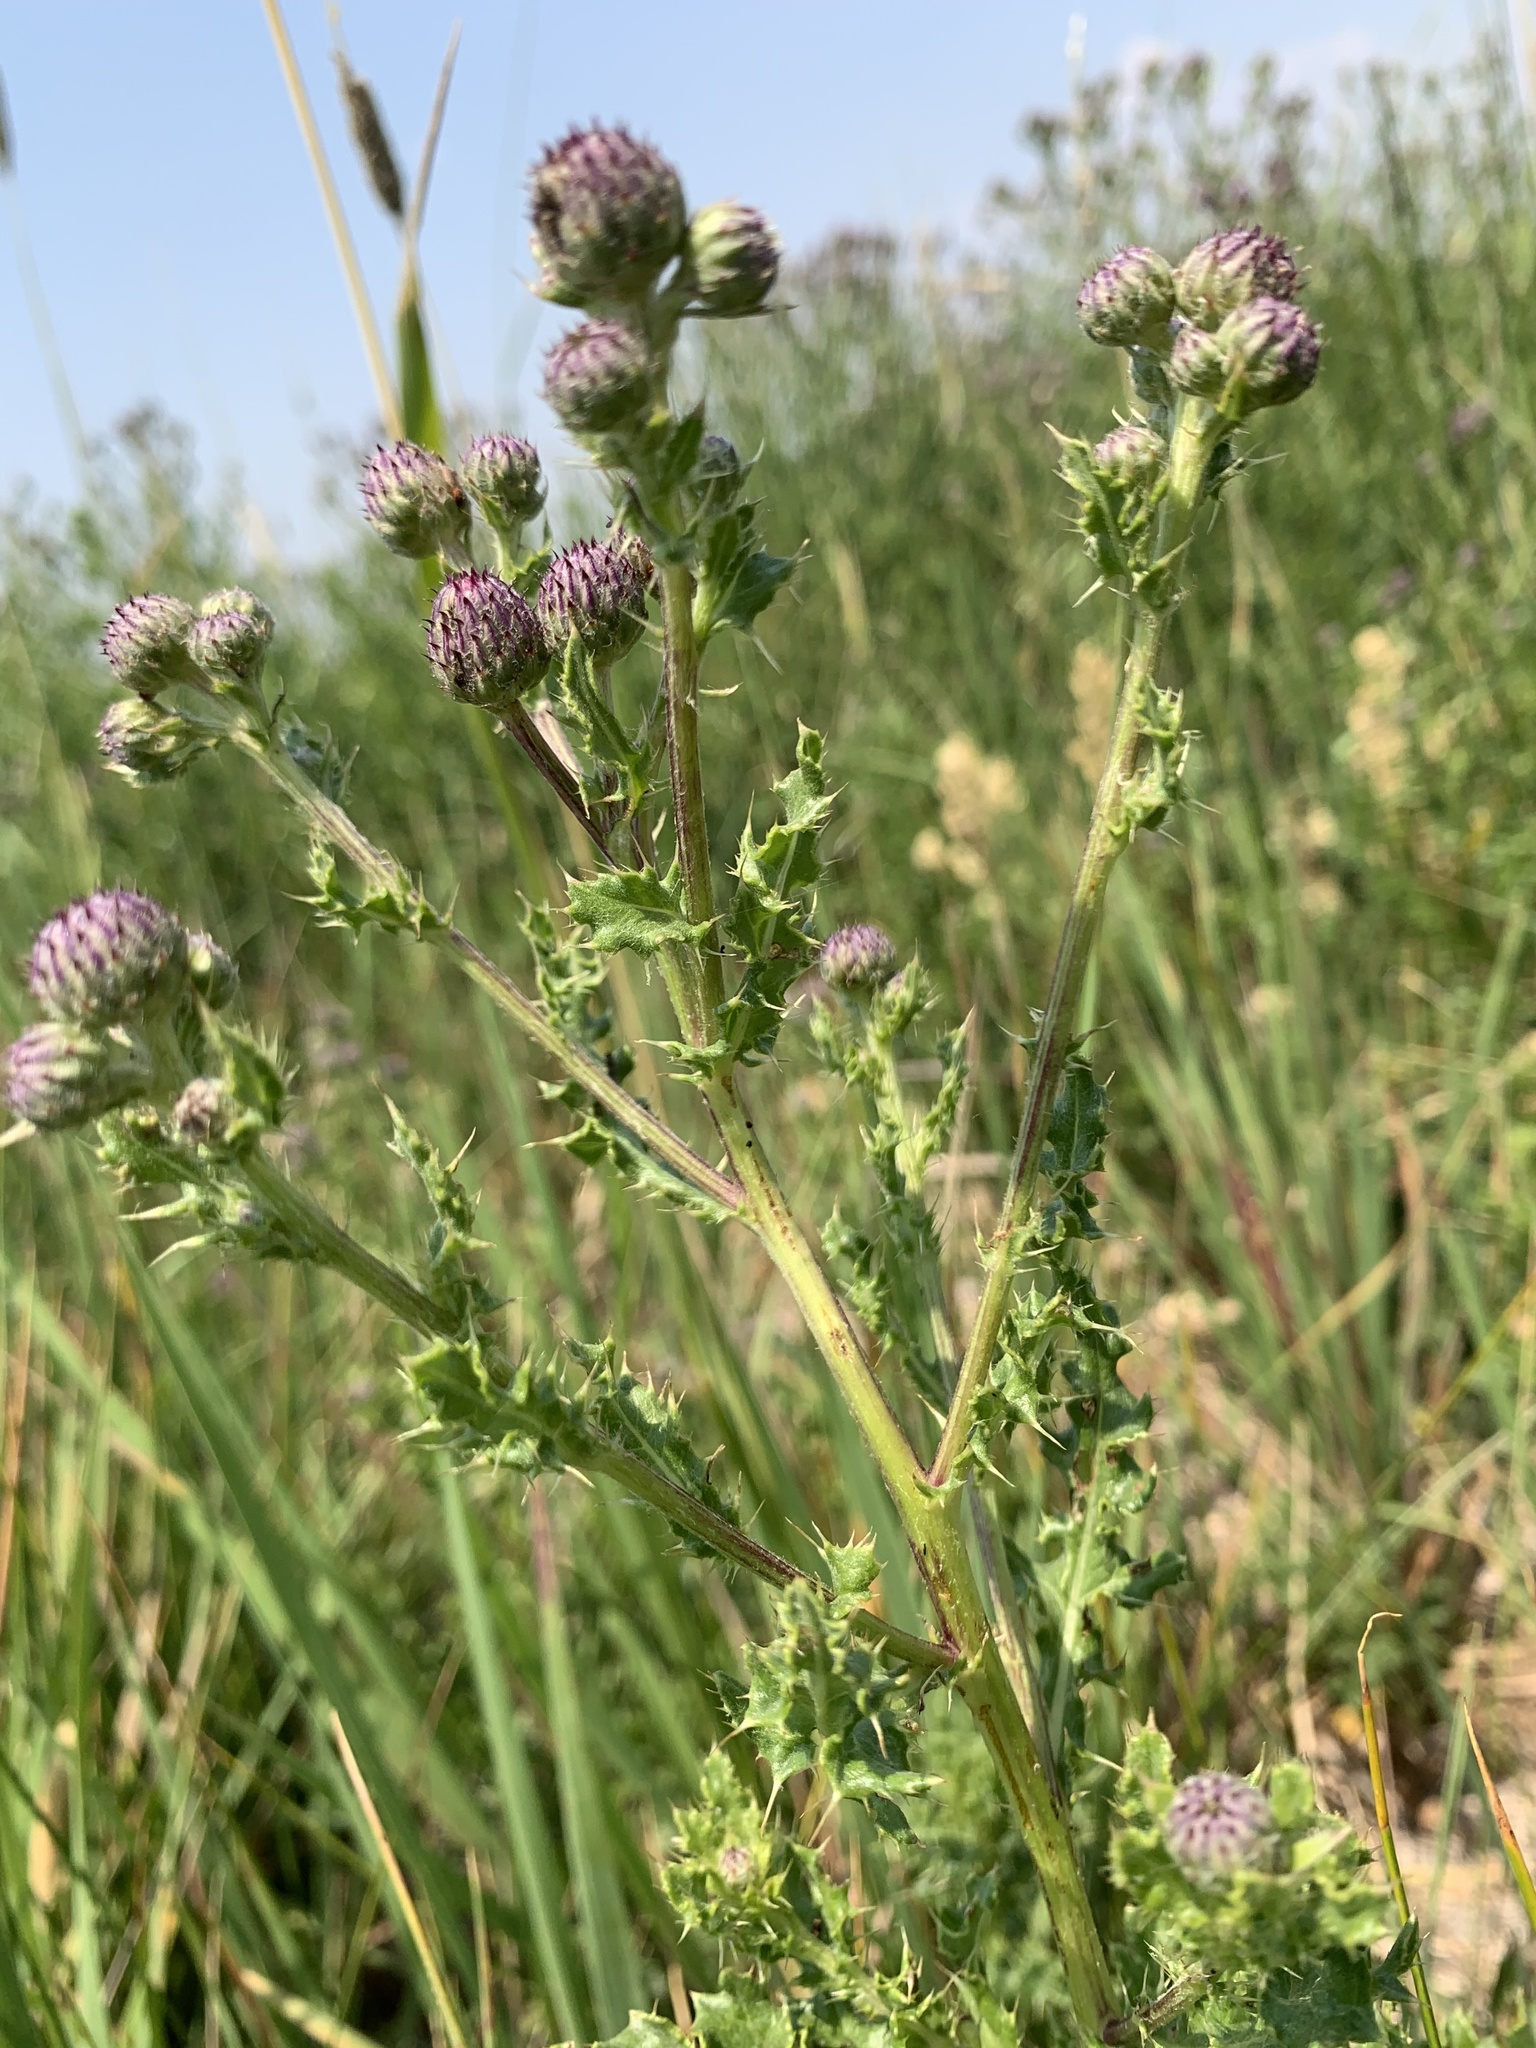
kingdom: Plantae
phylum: Tracheophyta
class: Magnoliopsida
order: Asterales
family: Asteraceae
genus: Cirsium
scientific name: Cirsium arvense
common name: Creeping thistle
